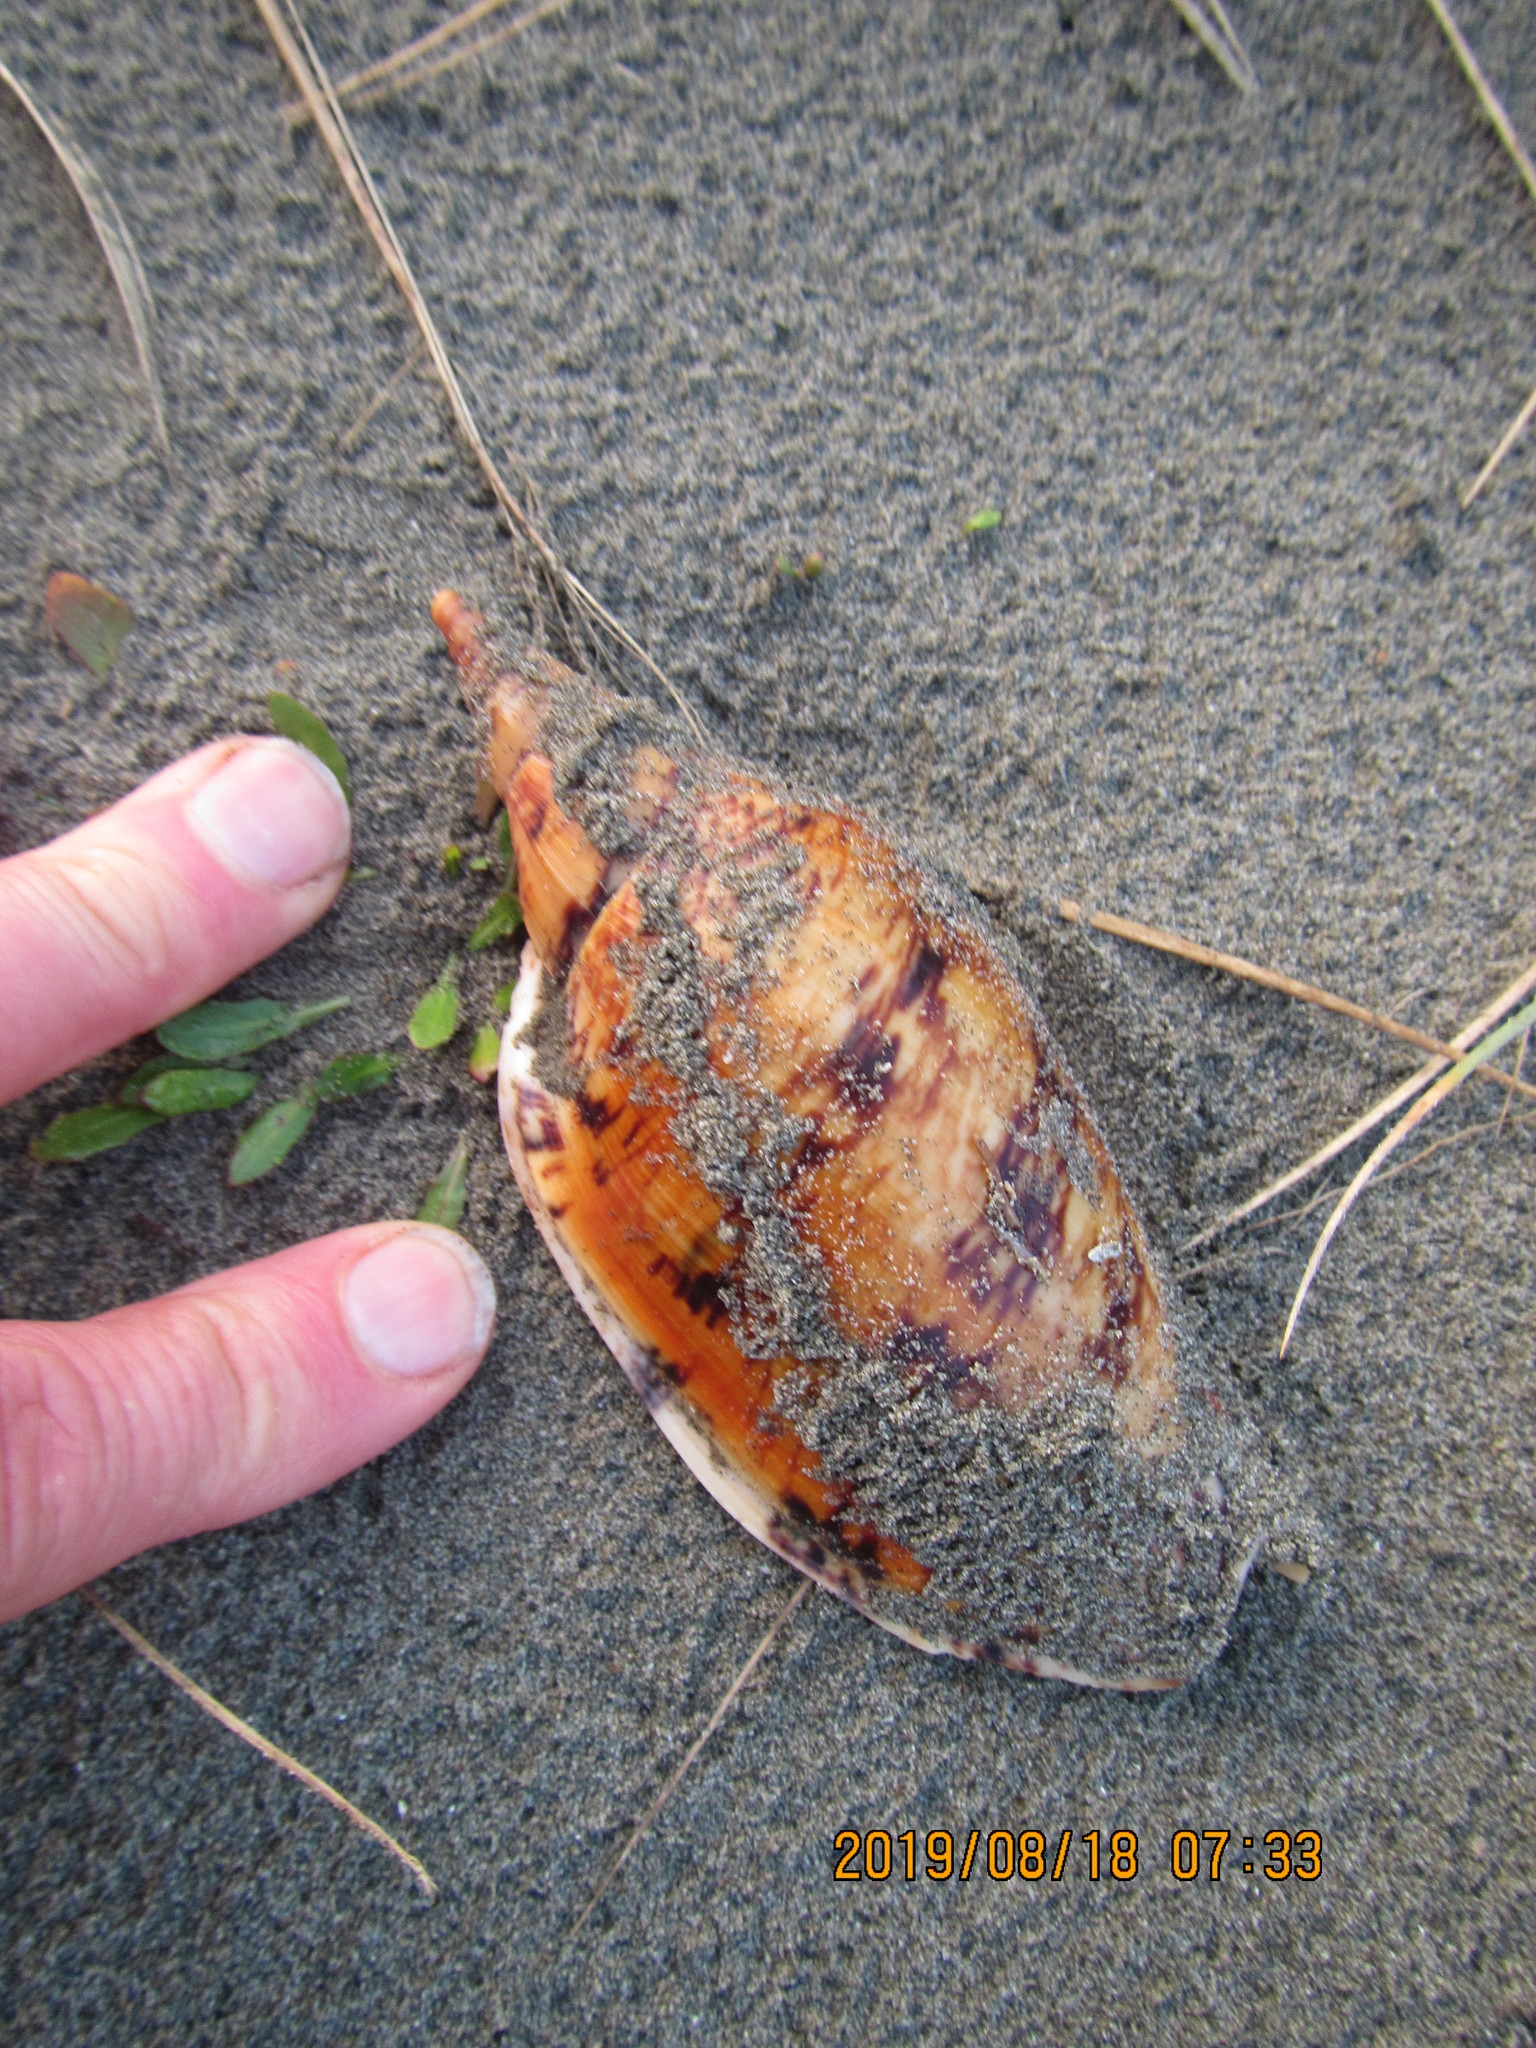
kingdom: Animalia
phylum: Mollusca
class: Gastropoda
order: Neogastropoda
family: Volutidae
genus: Alcithoe
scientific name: Alcithoe arabica
